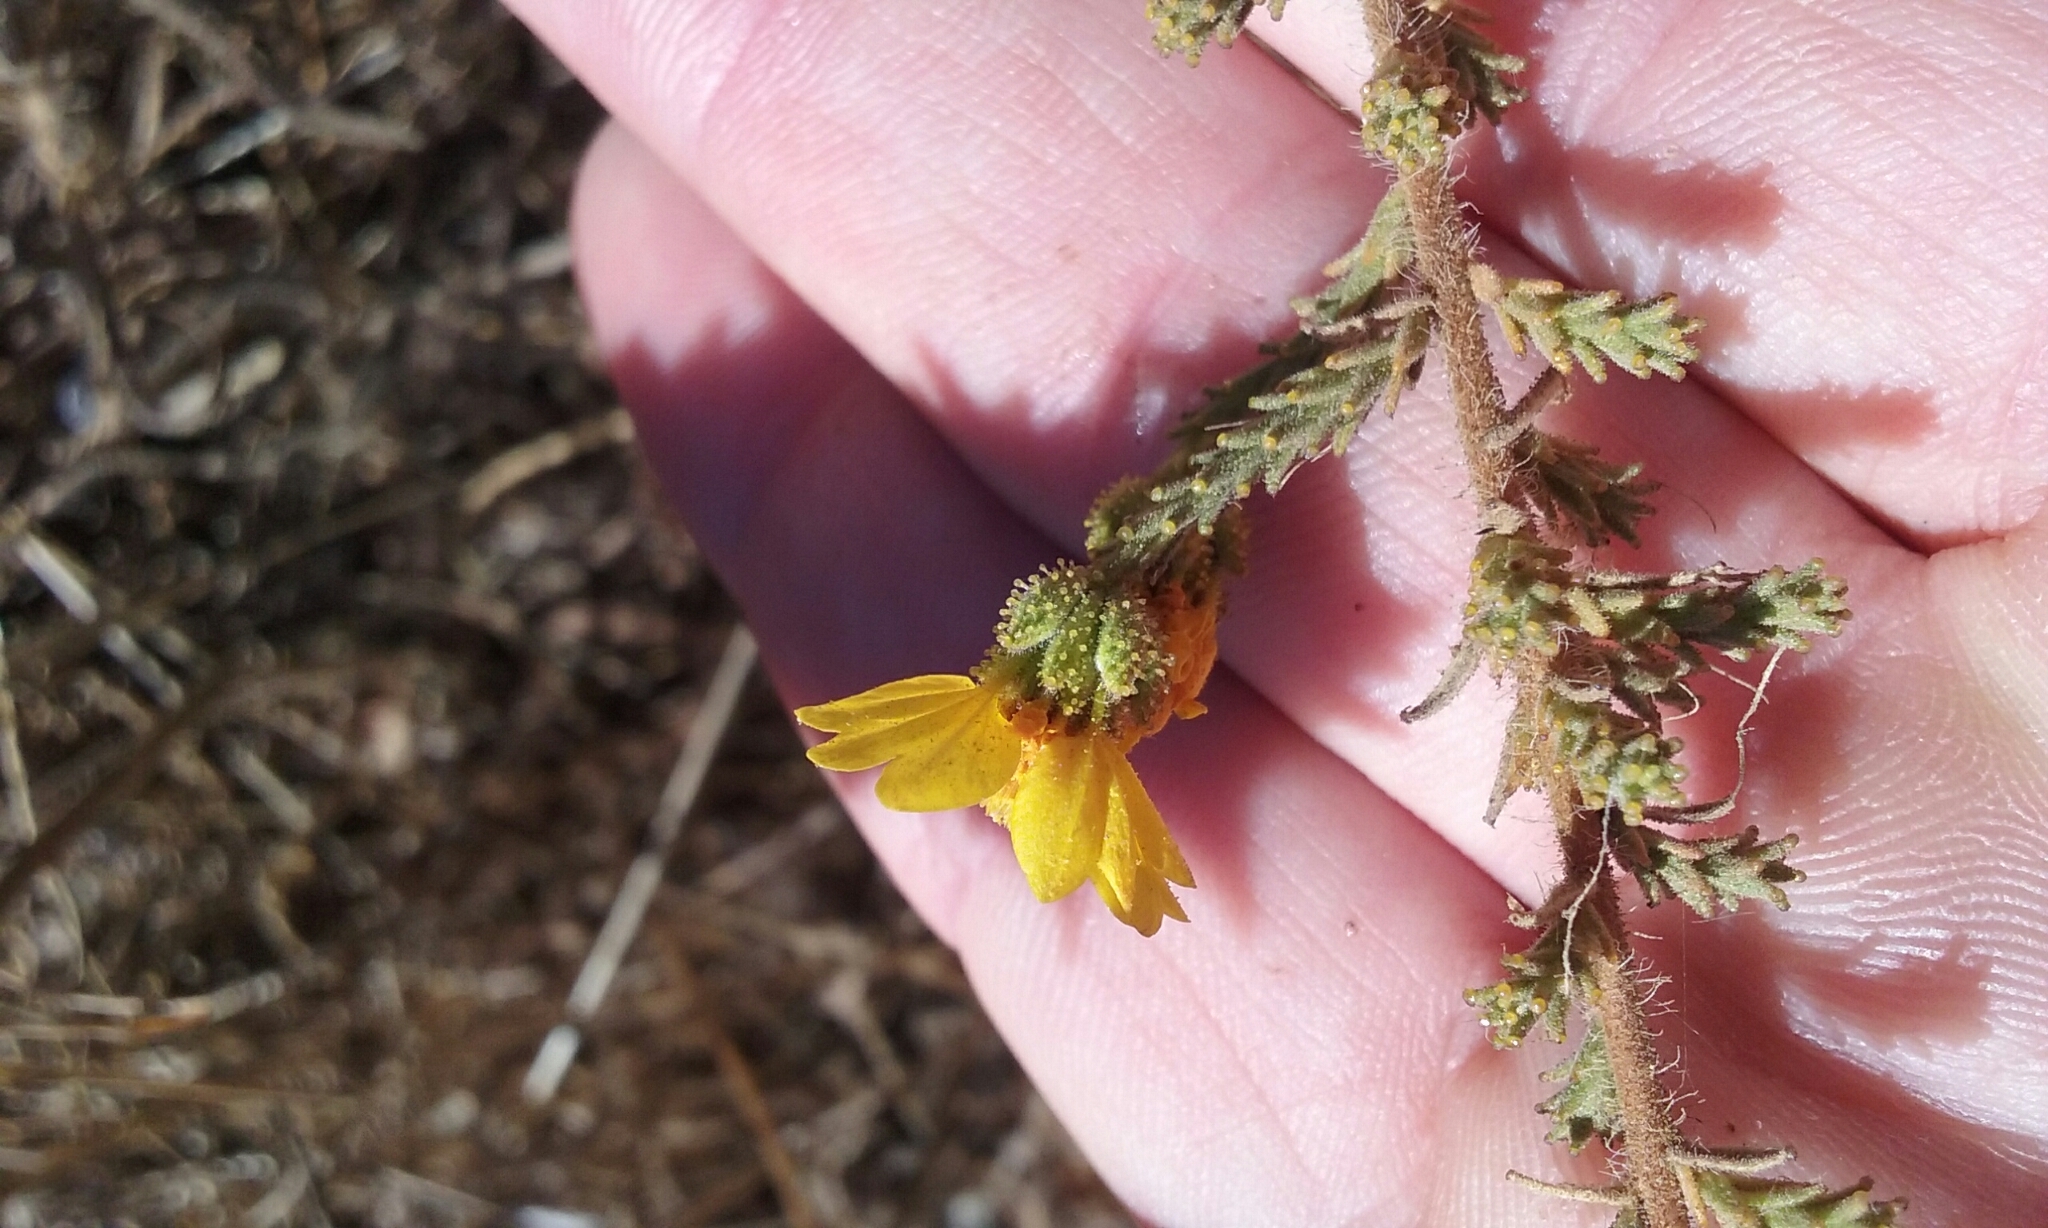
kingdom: Plantae
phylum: Tracheophyta
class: Magnoliopsida
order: Asterales
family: Asteraceae
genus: Holocarpha
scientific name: Holocarpha heermannii
